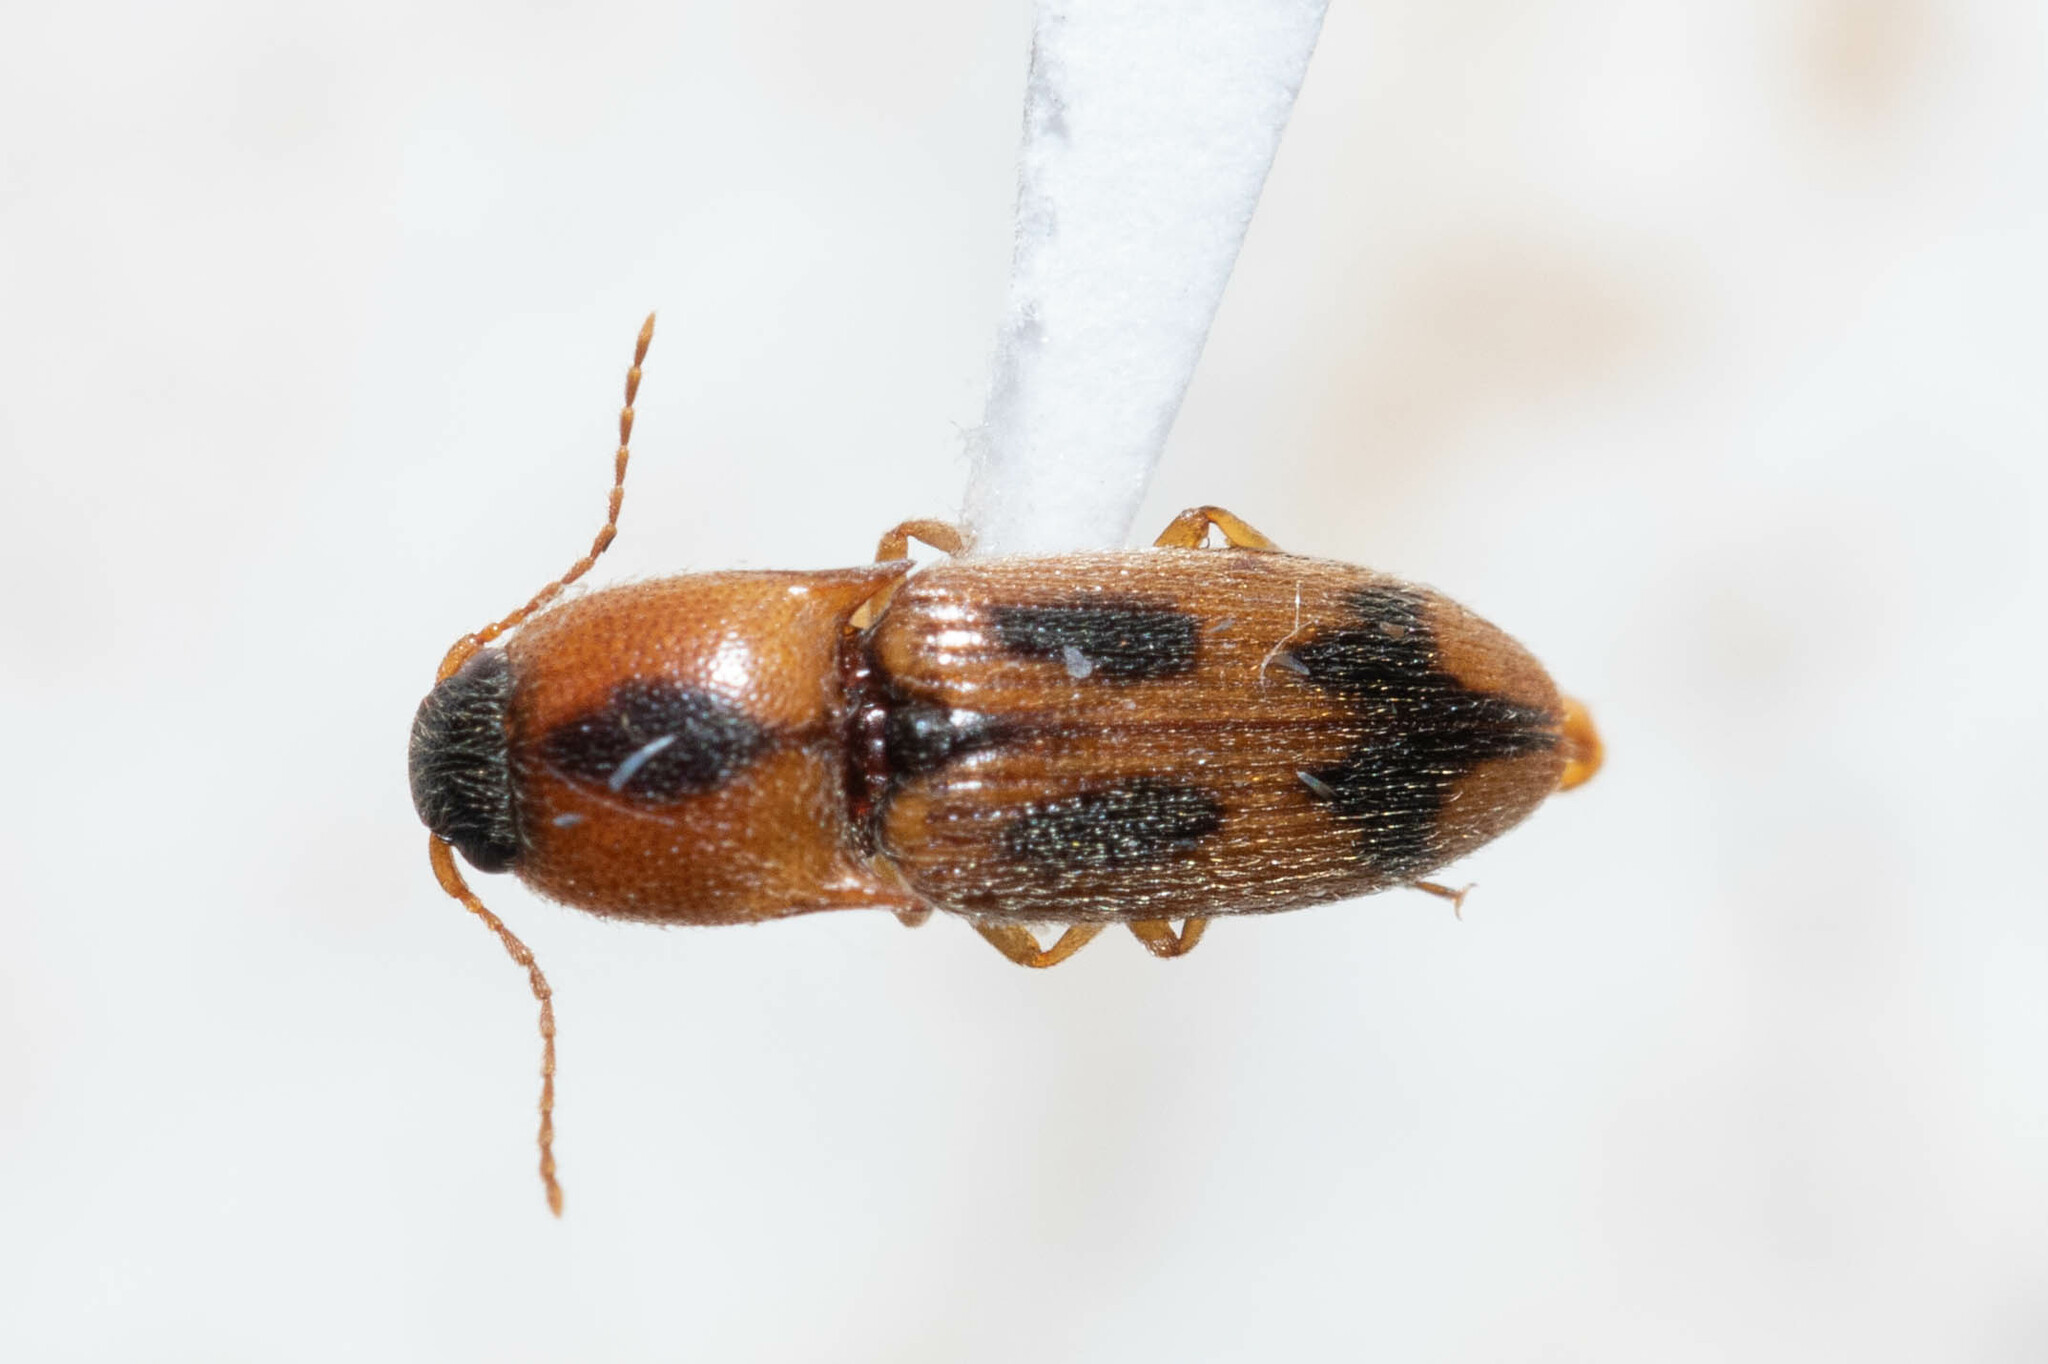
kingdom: Animalia
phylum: Arthropoda
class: Insecta
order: Coleoptera
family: Elateridae
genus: Aeolus
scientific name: Aeolus mellillus
